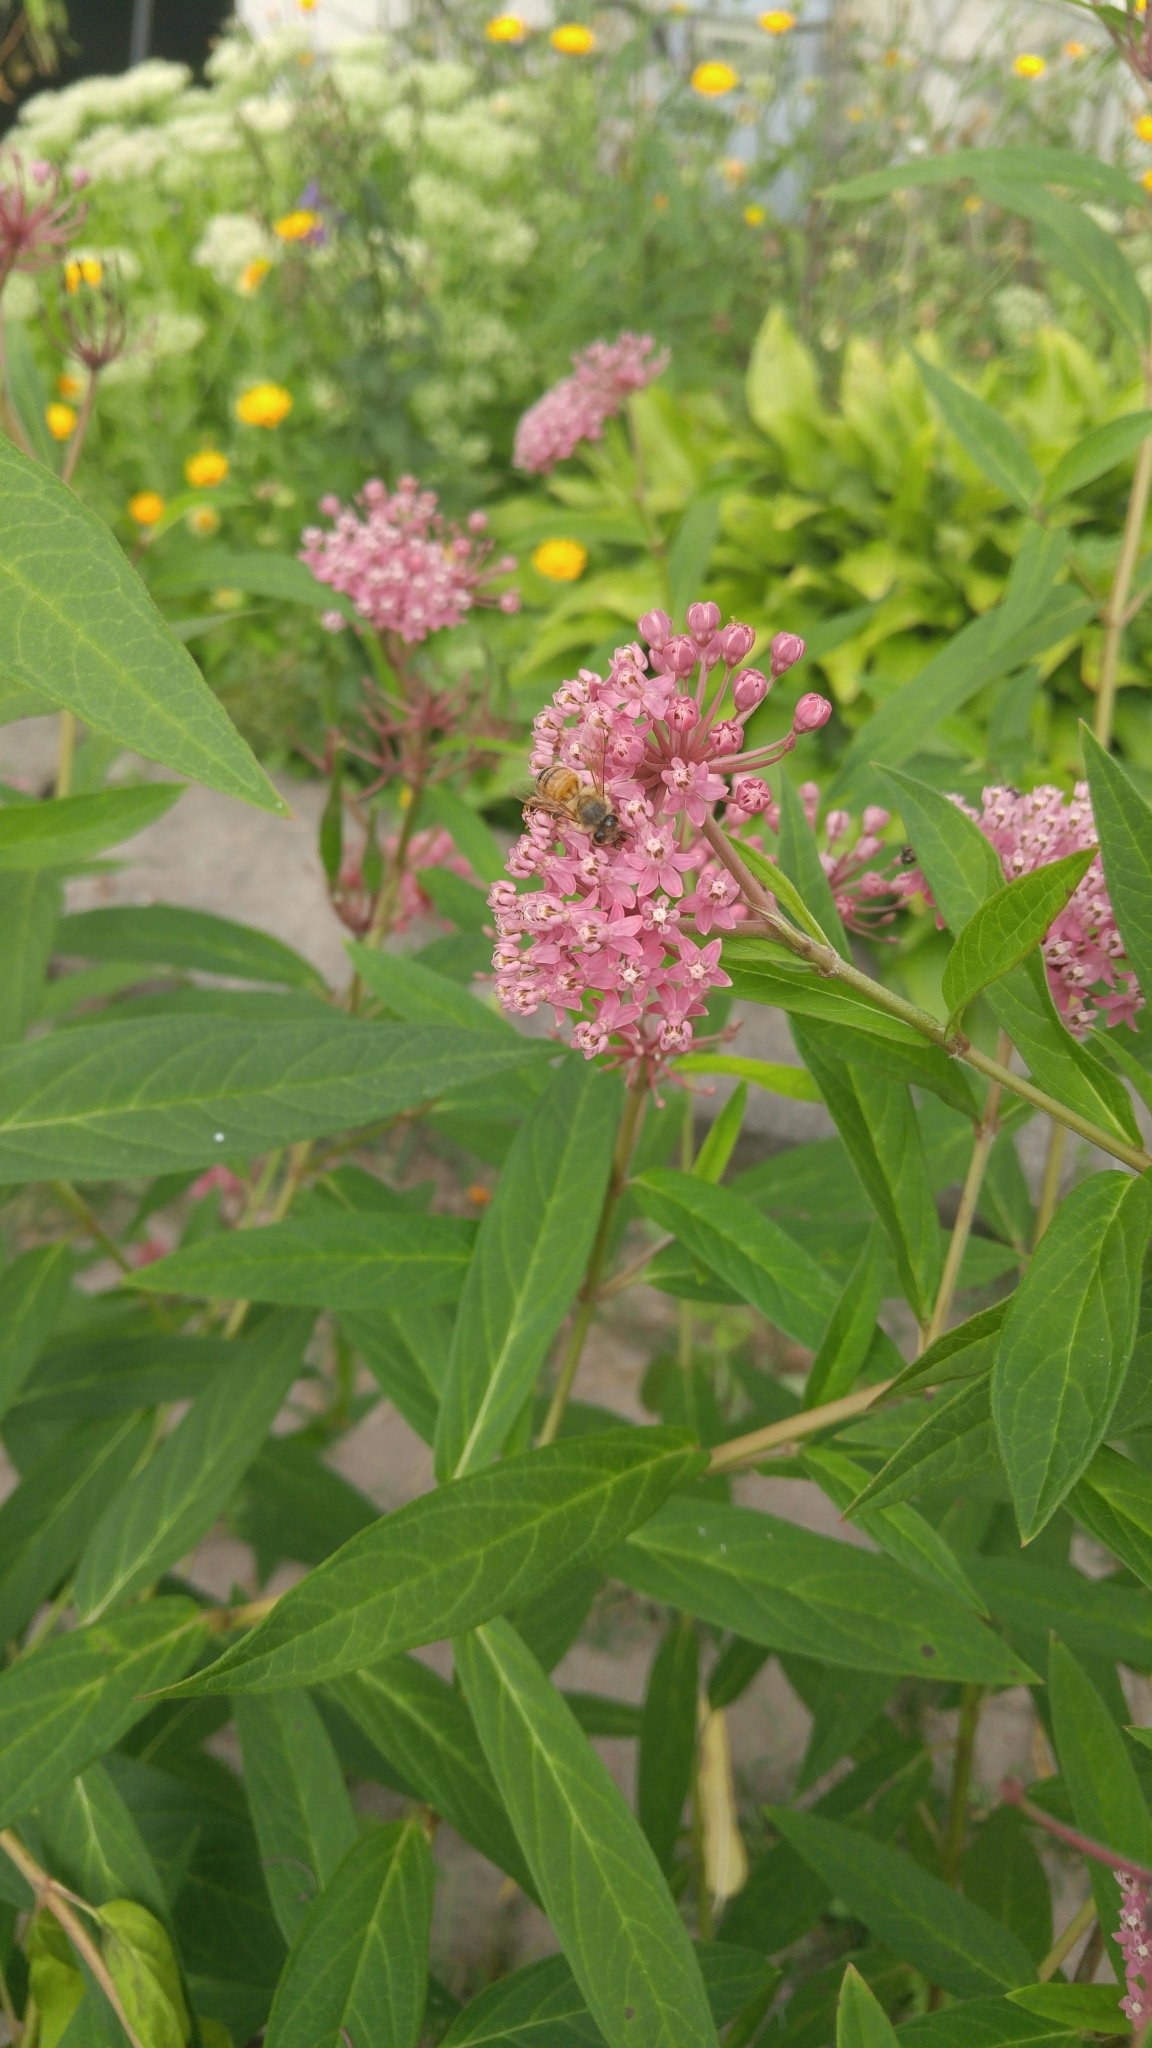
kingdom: Animalia
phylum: Arthropoda
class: Insecta
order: Hymenoptera
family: Apidae
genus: Apis
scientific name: Apis mellifera
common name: Honey bee
